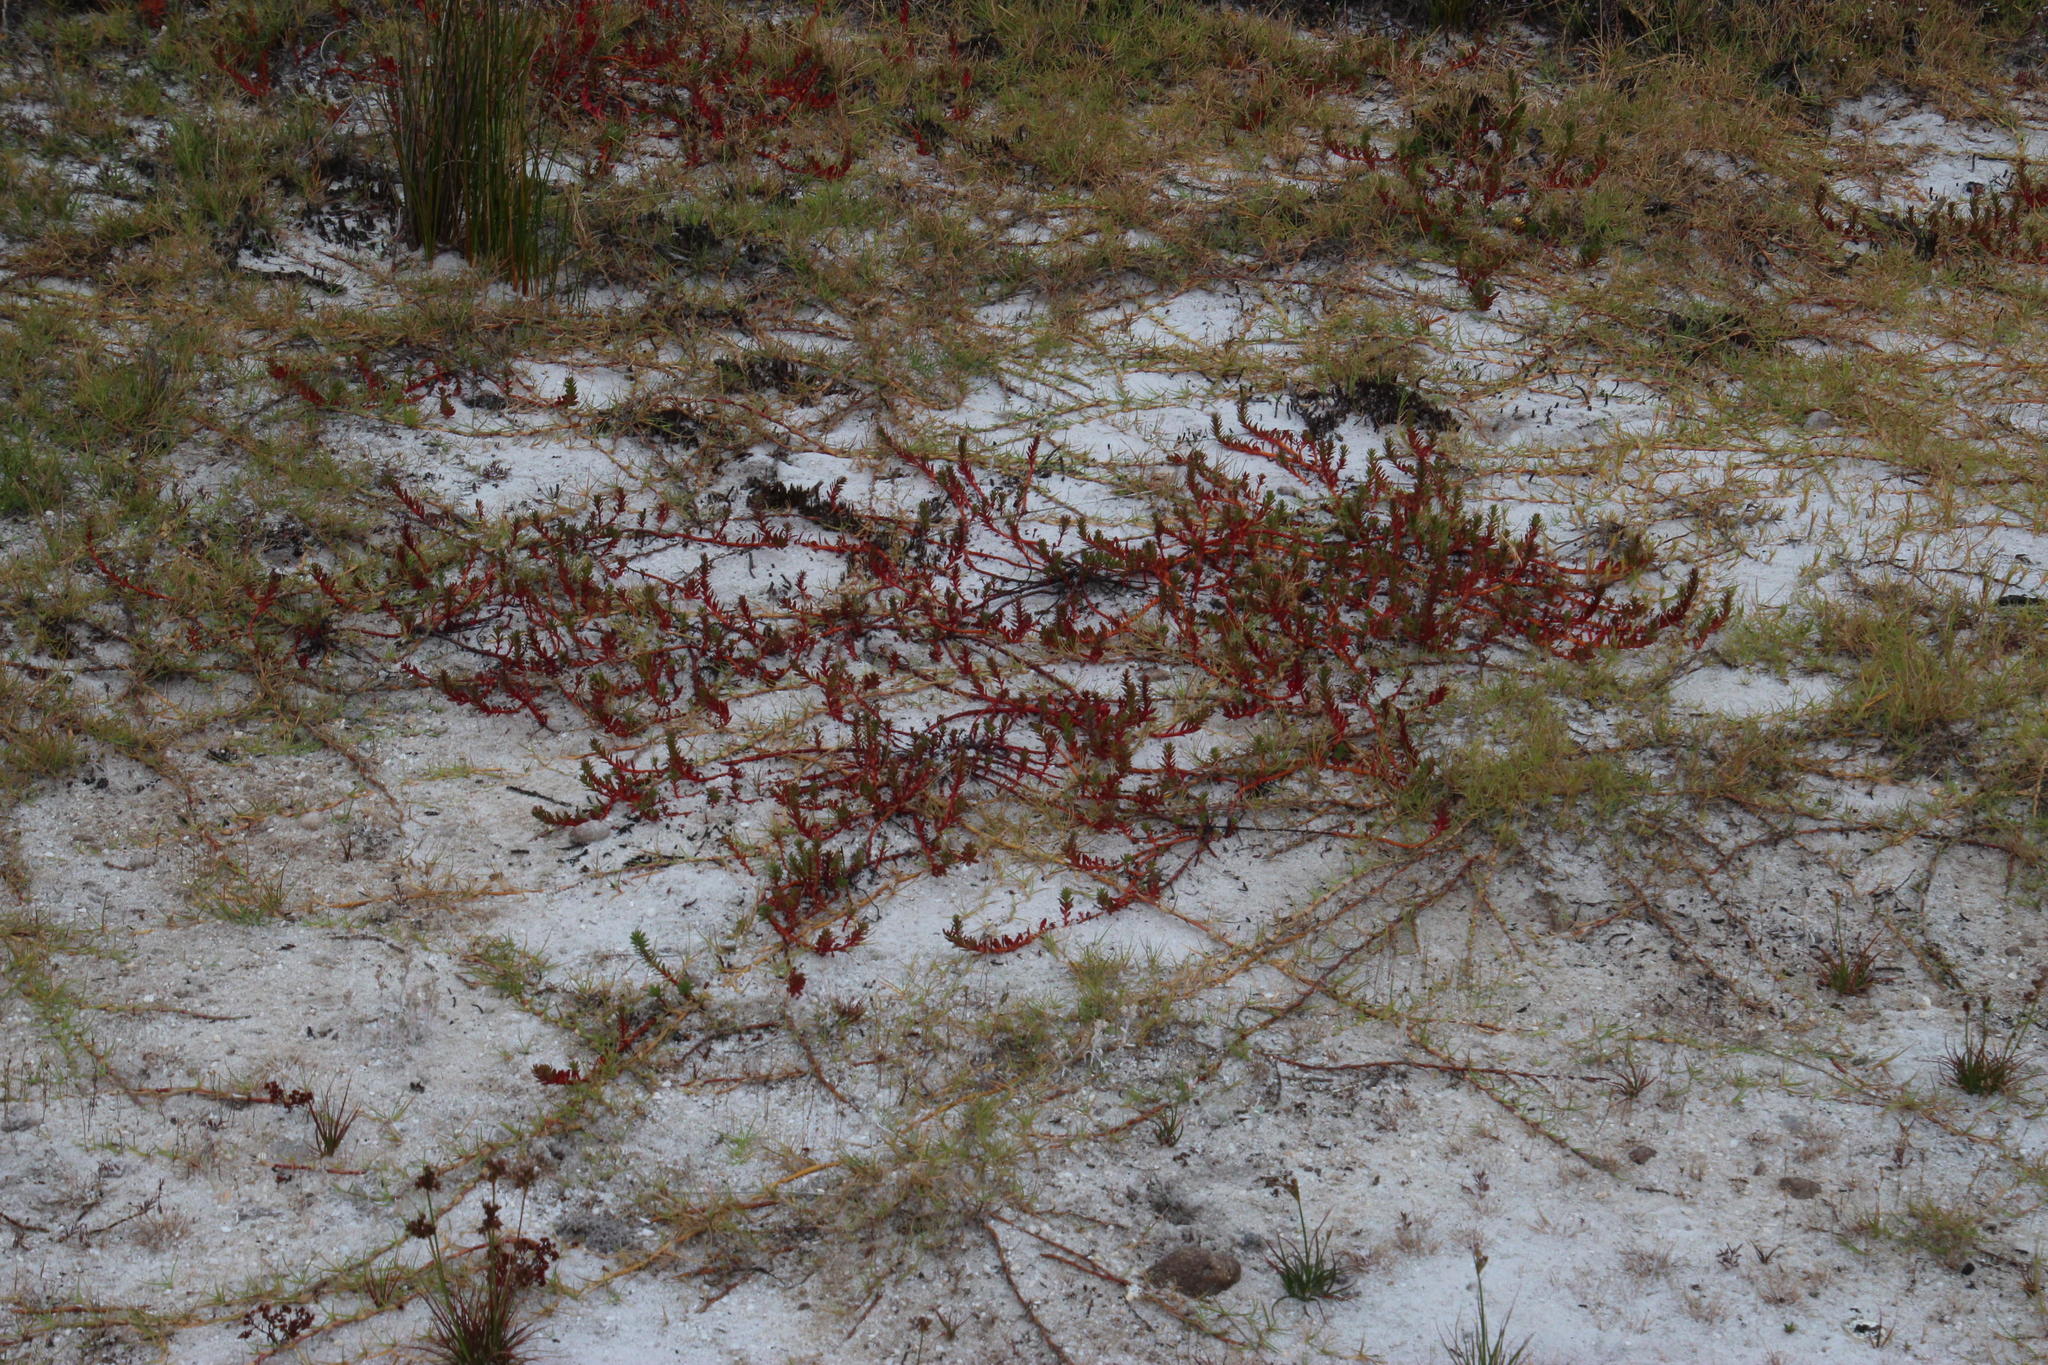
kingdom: Plantae
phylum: Tracheophyta
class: Magnoliopsida
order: Saxifragales
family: Haloragaceae
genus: Laurembergia
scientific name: Laurembergia repens
